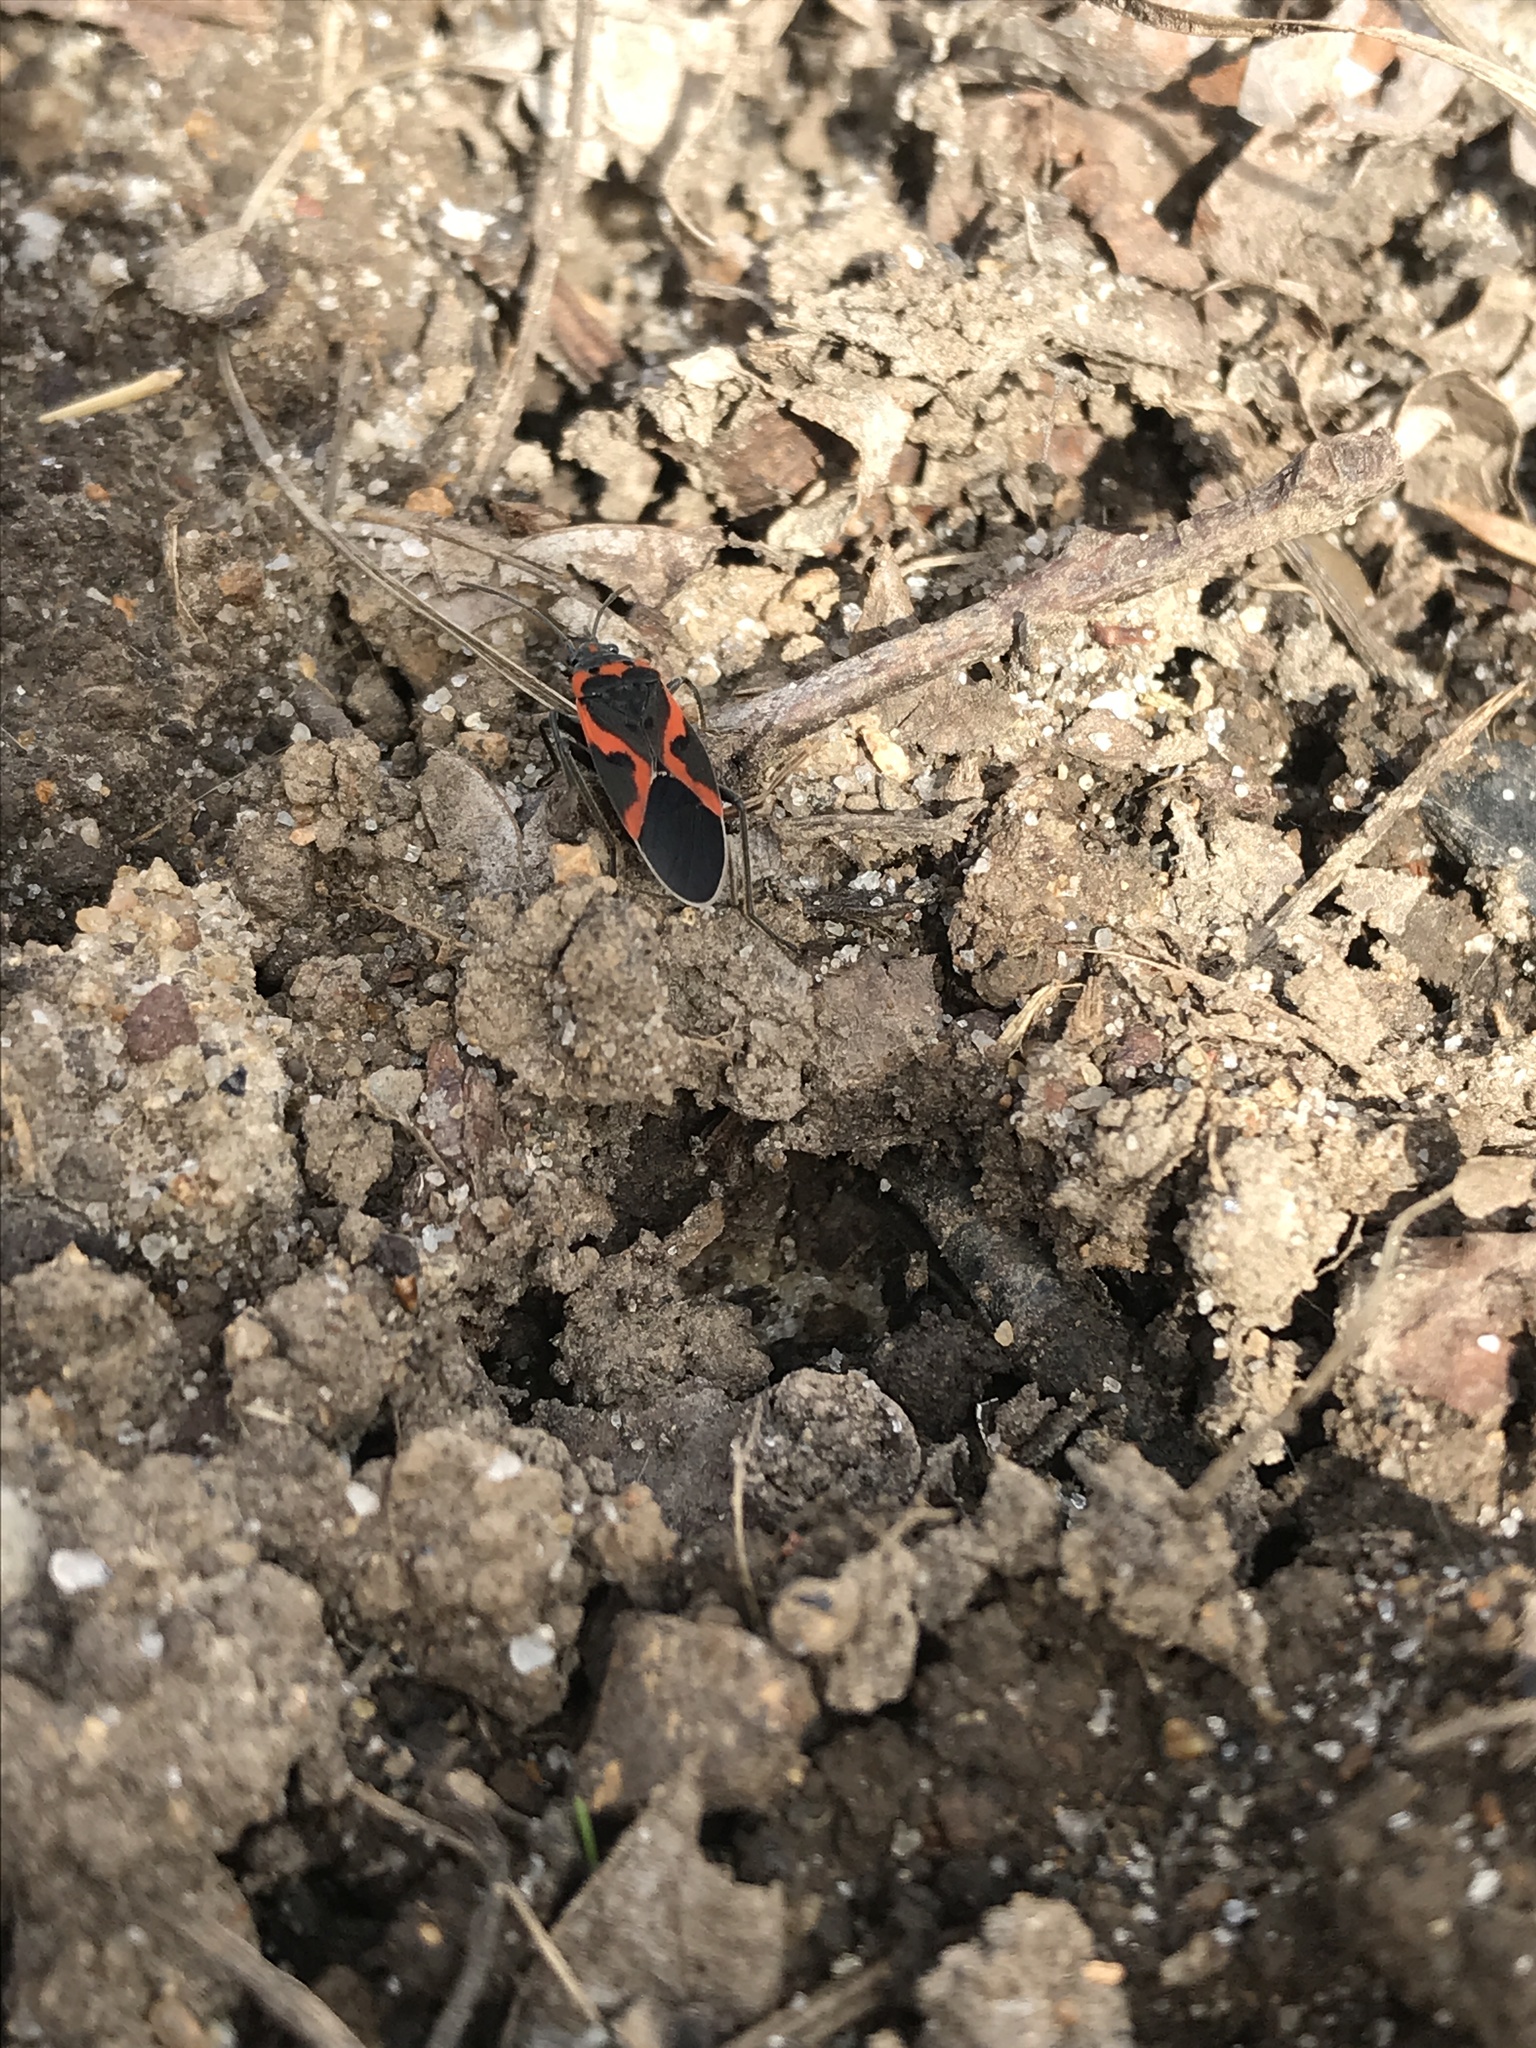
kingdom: Animalia
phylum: Arthropoda
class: Insecta
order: Hemiptera
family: Lygaeidae
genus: Lygaeus
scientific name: Lygaeus kalmii
